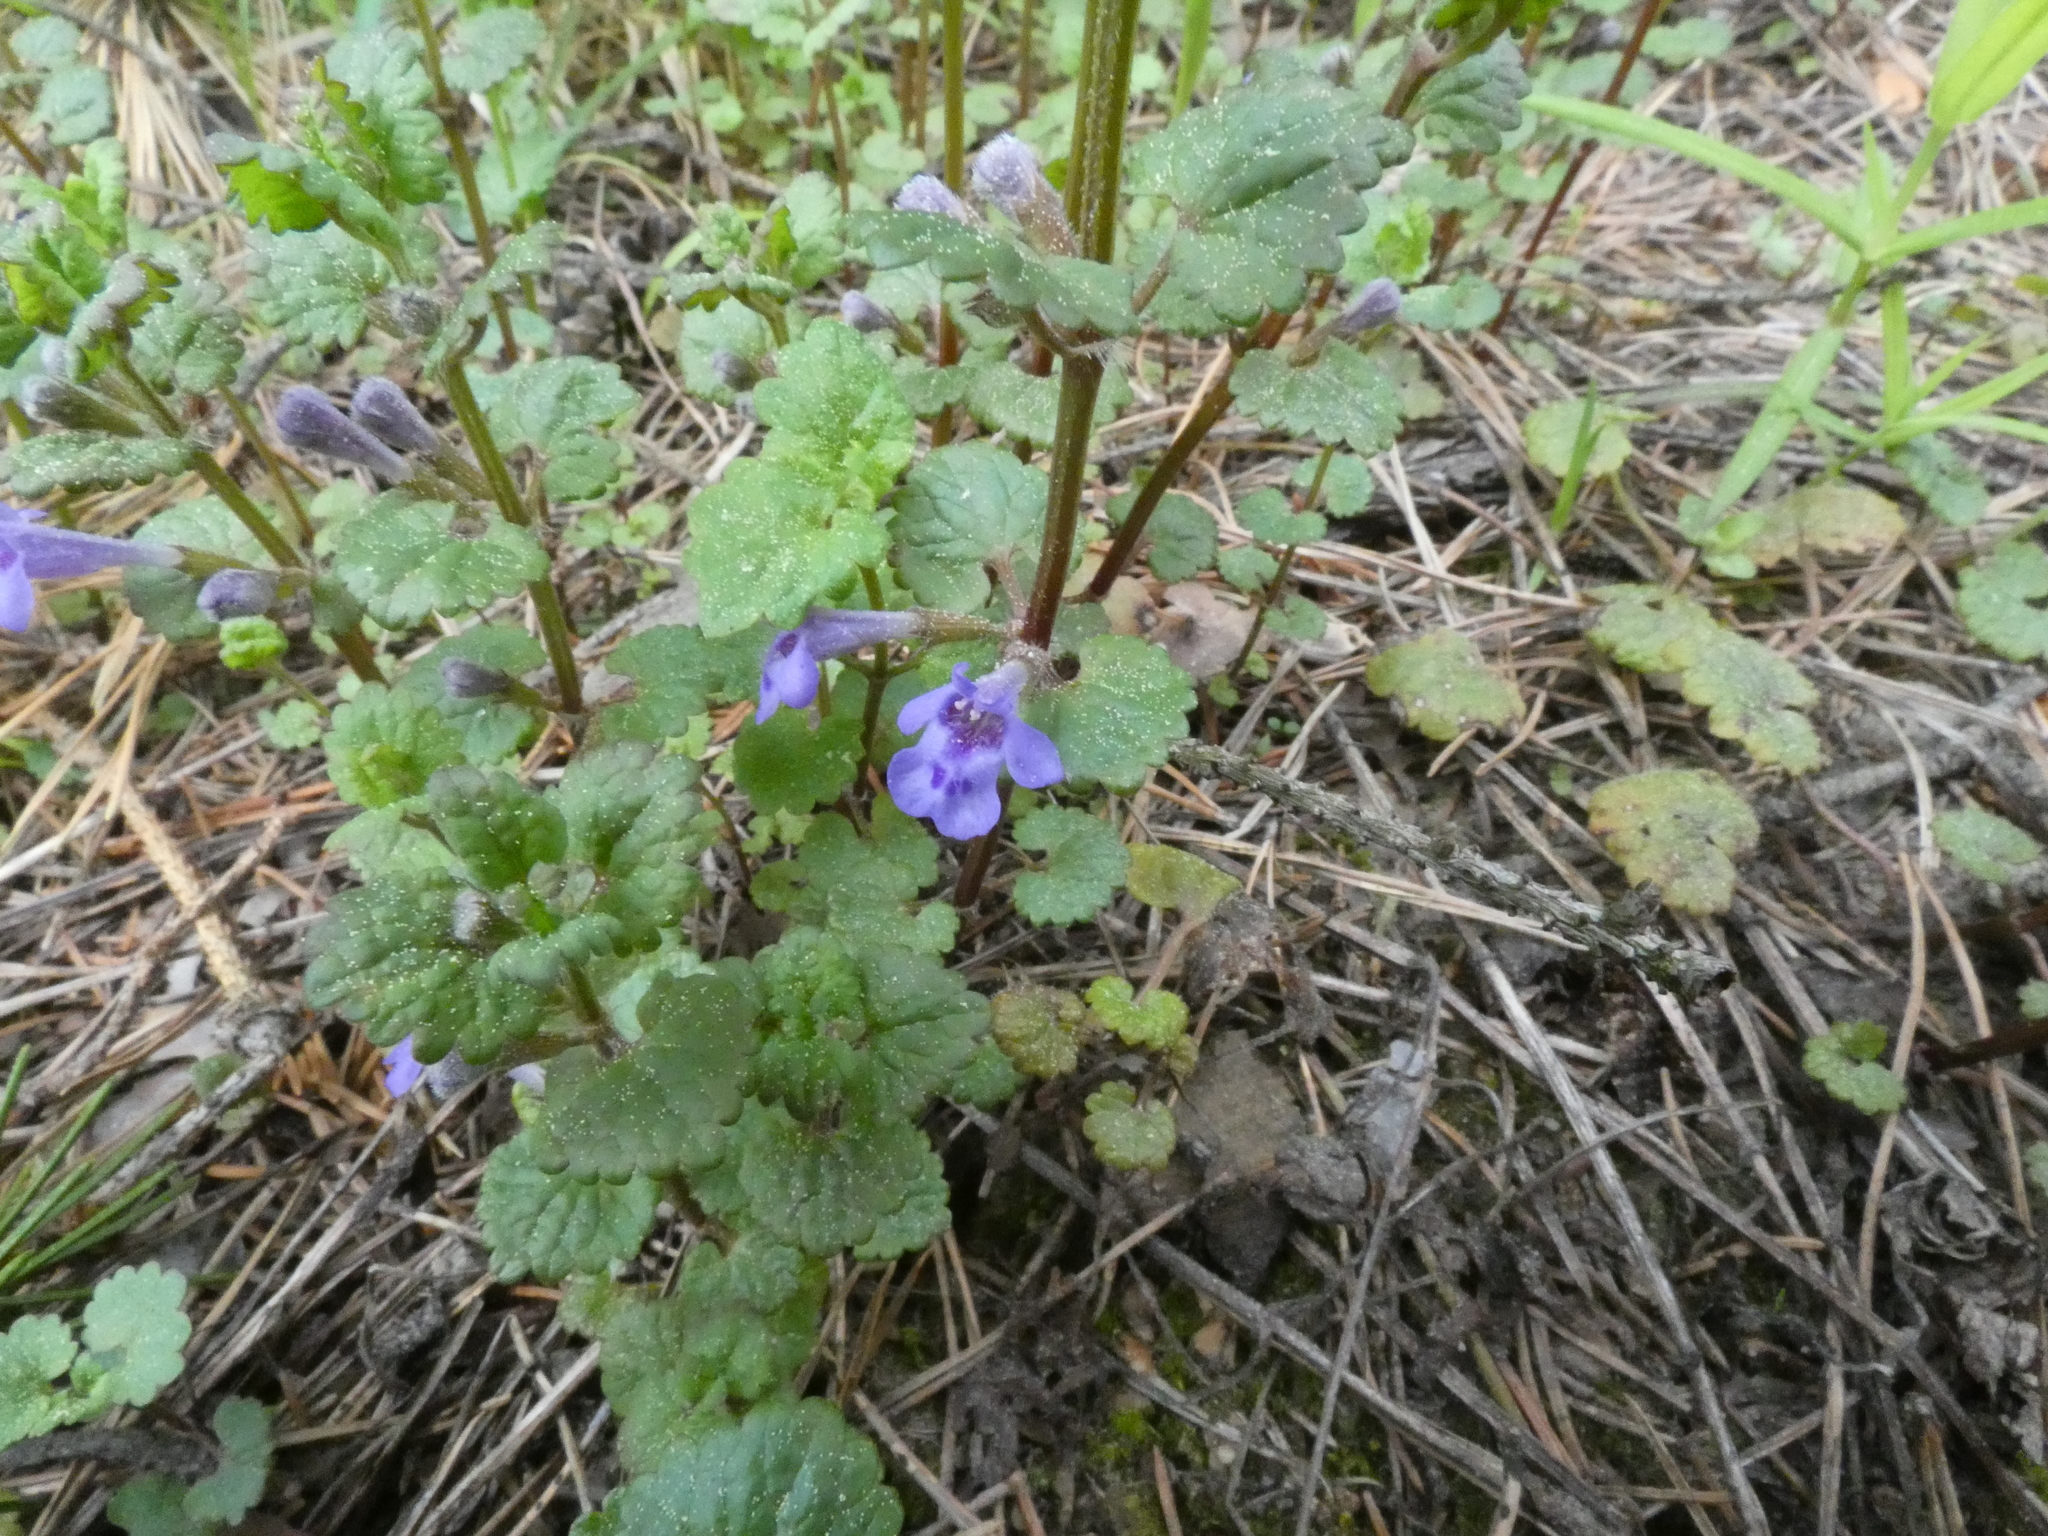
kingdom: Plantae
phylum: Tracheophyta
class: Magnoliopsida
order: Lamiales
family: Lamiaceae
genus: Glechoma
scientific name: Glechoma hederacea
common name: Ground ivy
